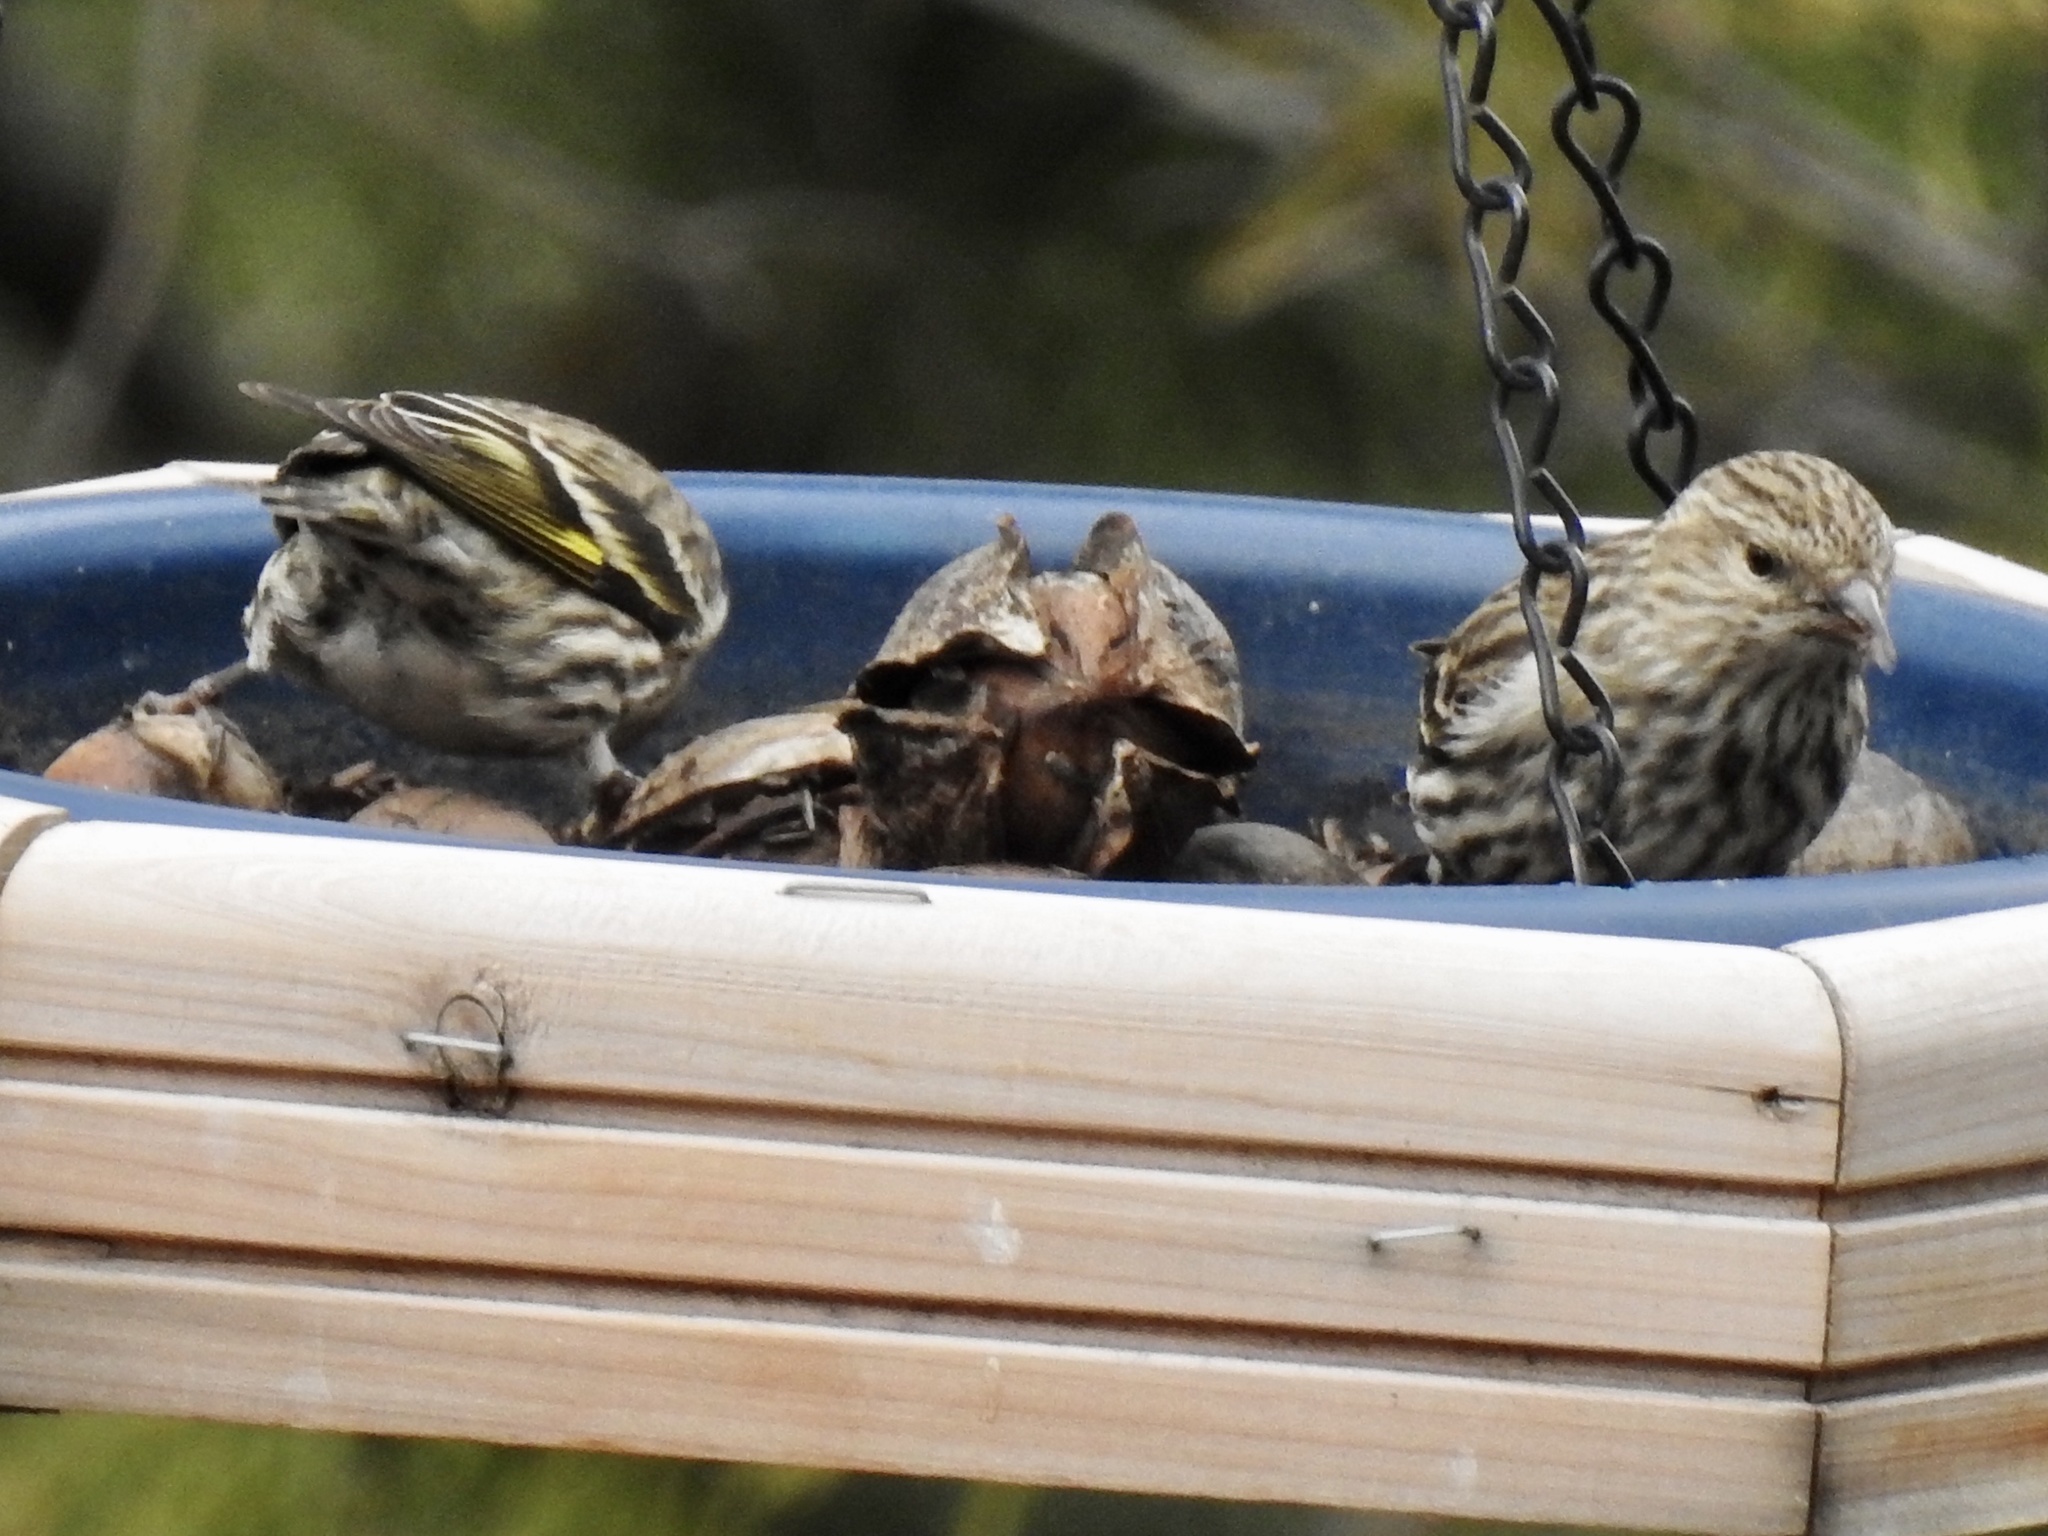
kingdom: Animalia
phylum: Chordata
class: Aves
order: Passeriformes
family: Fringillidae
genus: Spinus
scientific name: Spinus pinus
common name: Pine siskin
